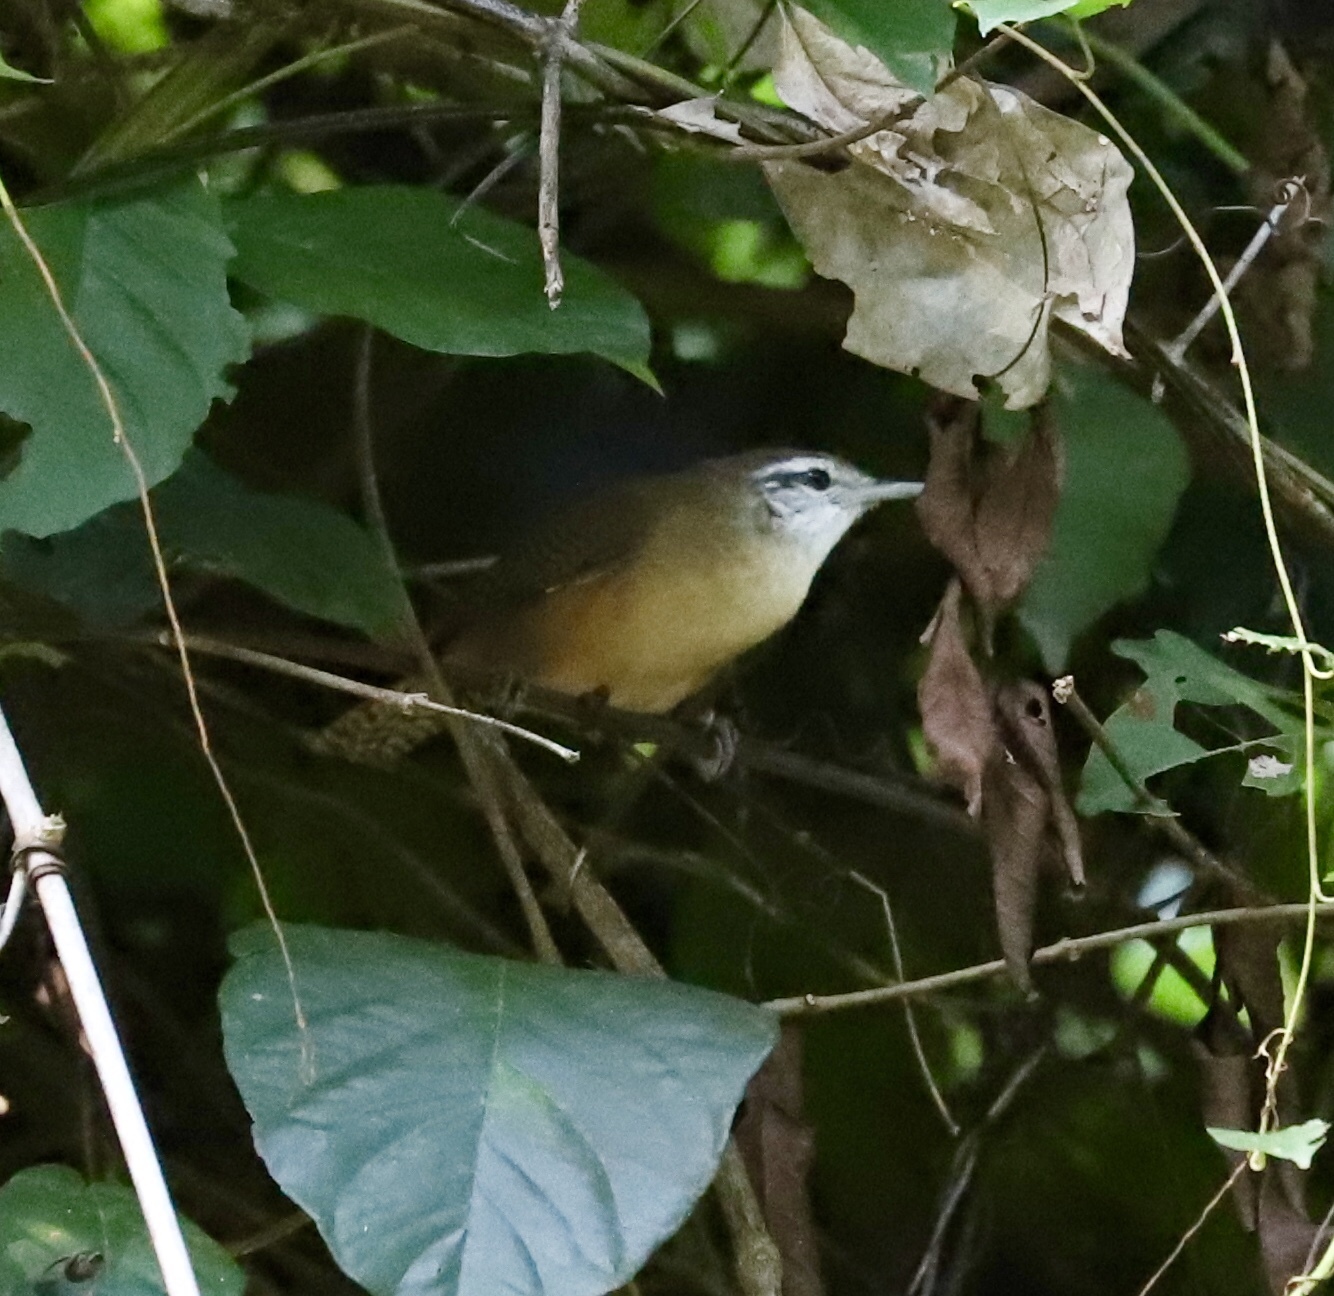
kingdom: Animalia
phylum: Chordata
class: Aves
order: Passeriformes
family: Troglodytidae
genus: Cantorchilus
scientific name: Cantorchilus leucotis
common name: Buff-breasted wren
